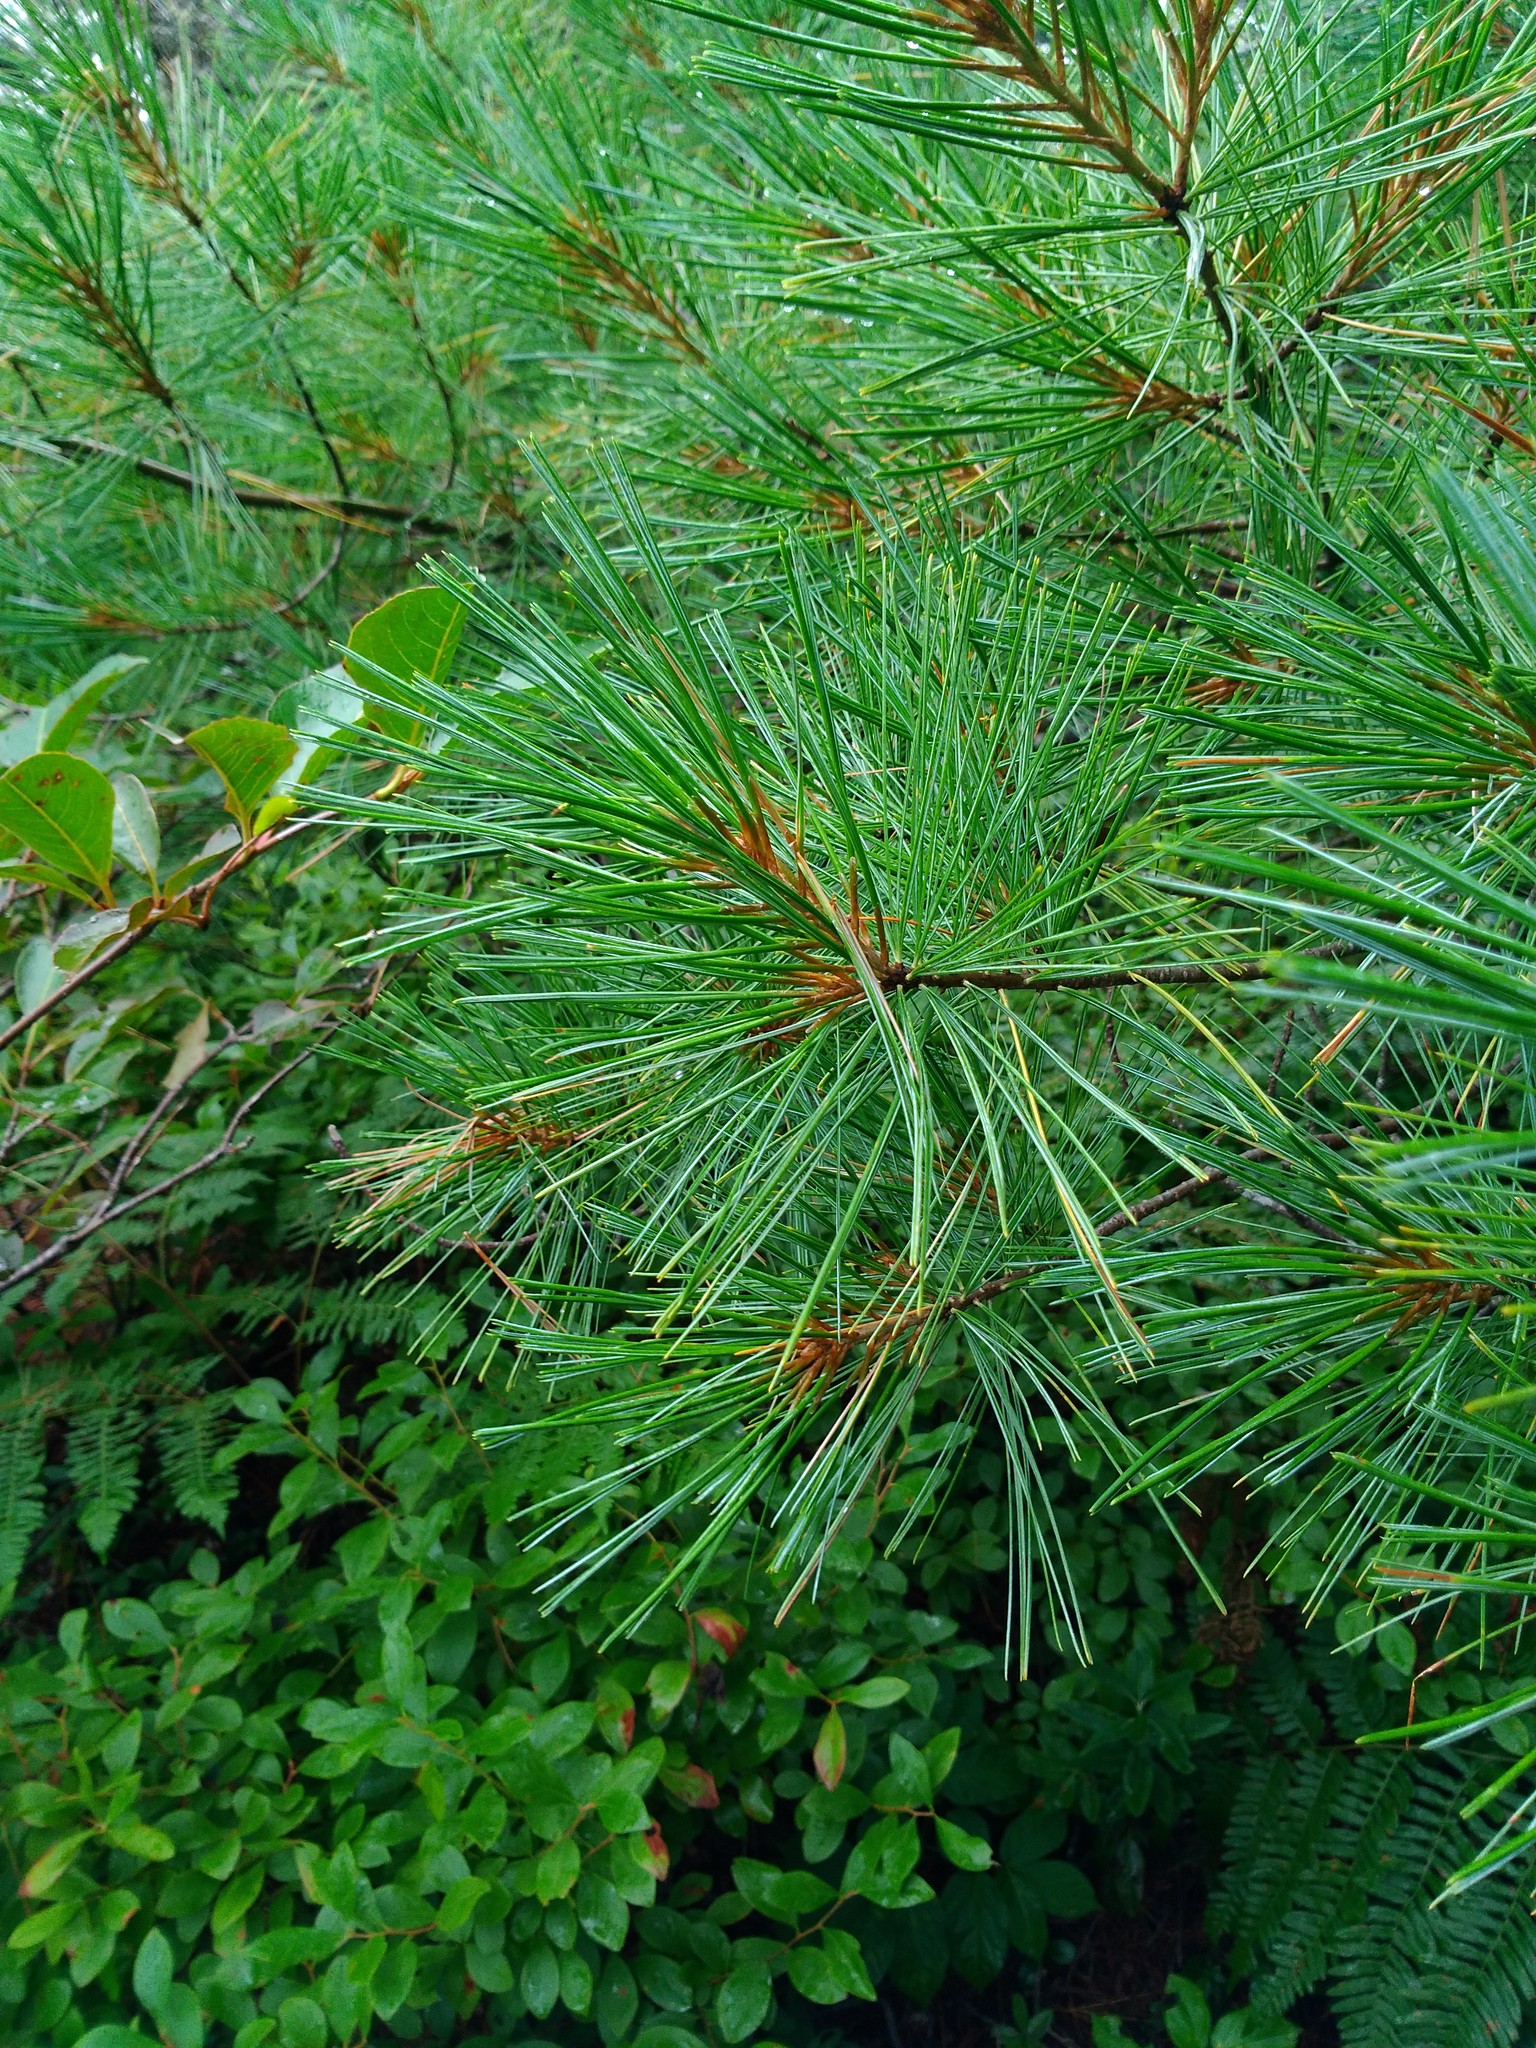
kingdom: Plantae
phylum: Tracheophyta
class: Pinopsida
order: Pinales
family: Pinaceae
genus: Pinus
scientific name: Pinus strobus
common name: Weymouth pine
